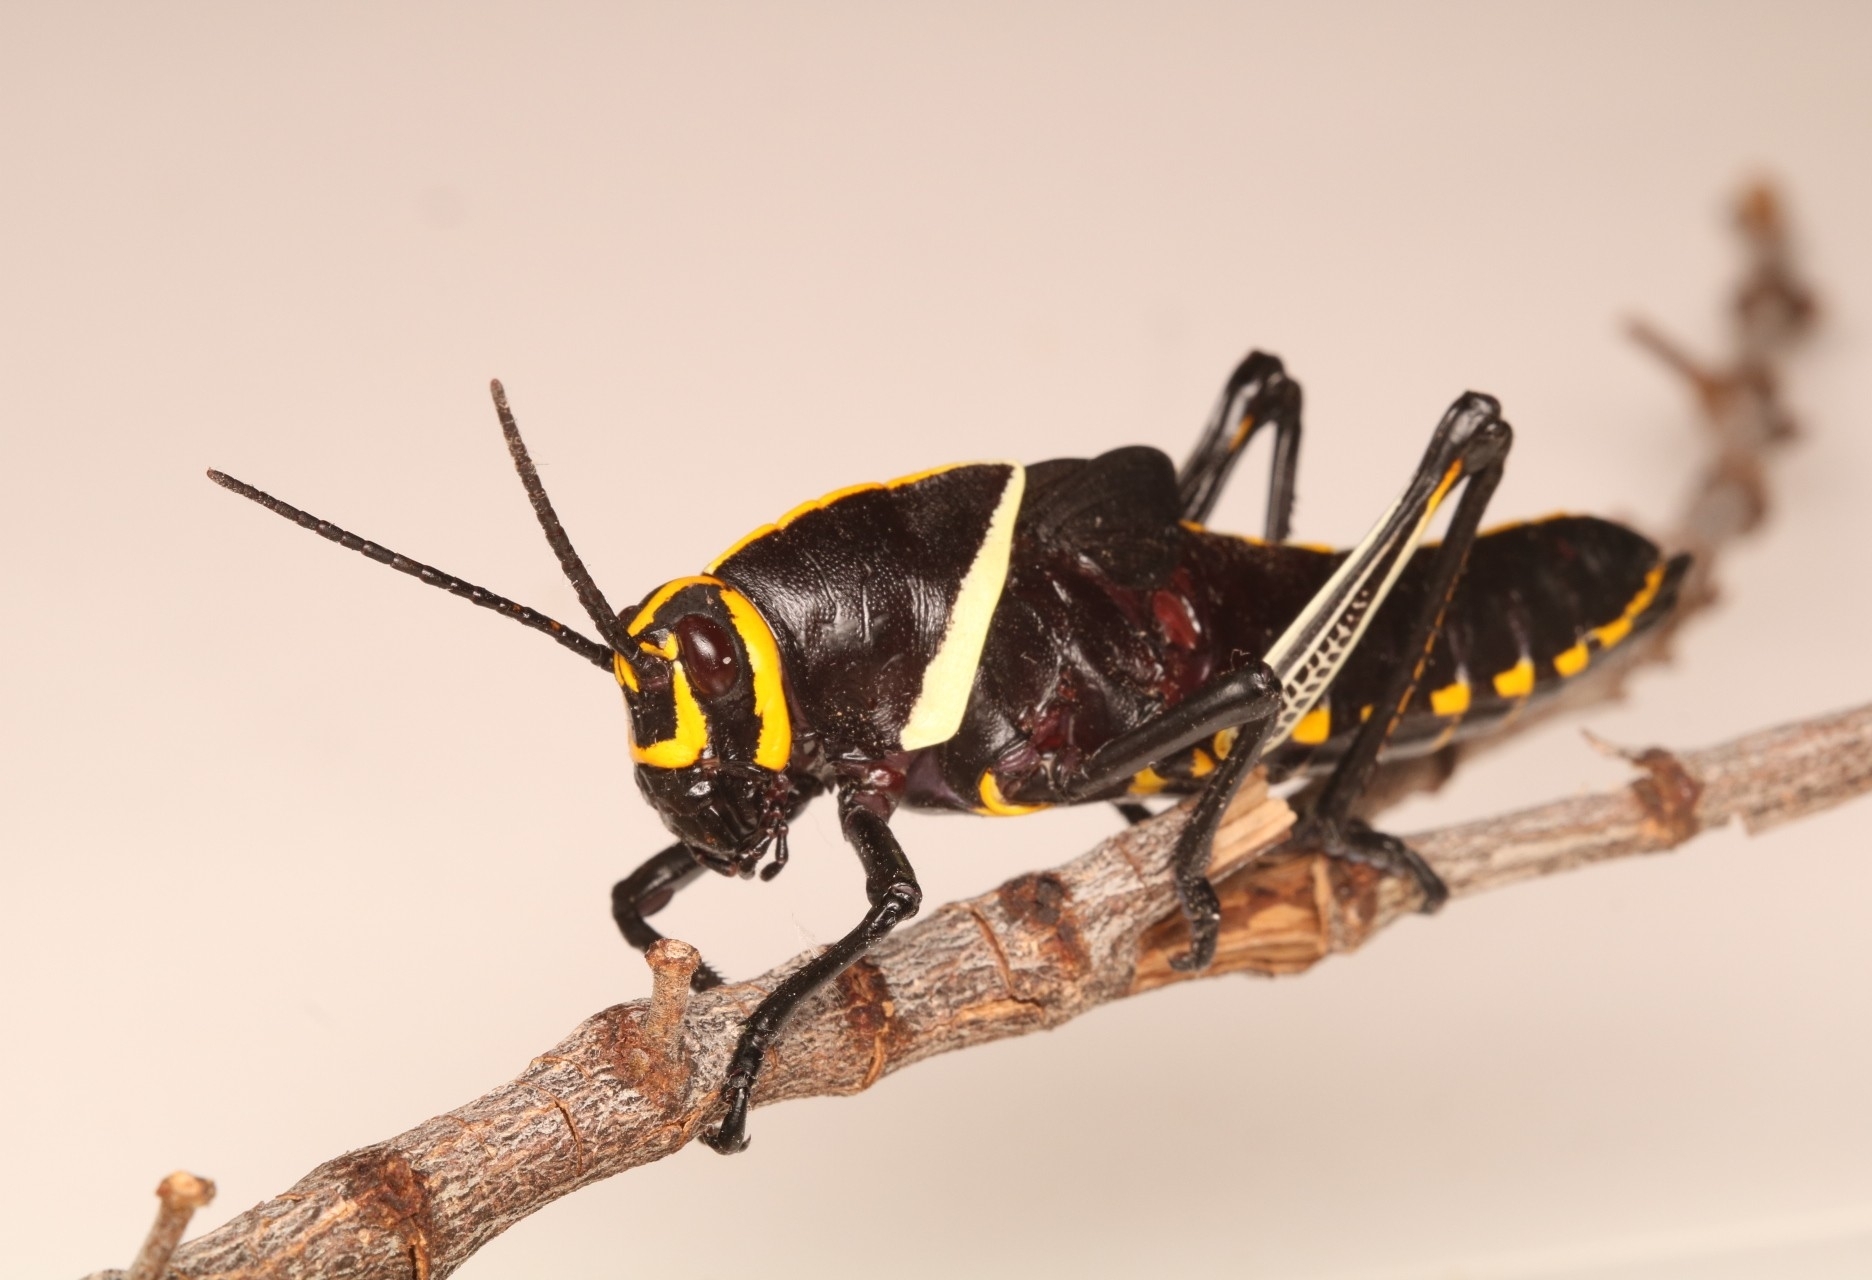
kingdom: Animalia
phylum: Arthropoda
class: Insecta
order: Orthoptera
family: Romaleidae
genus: Romalea
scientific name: Romalea
